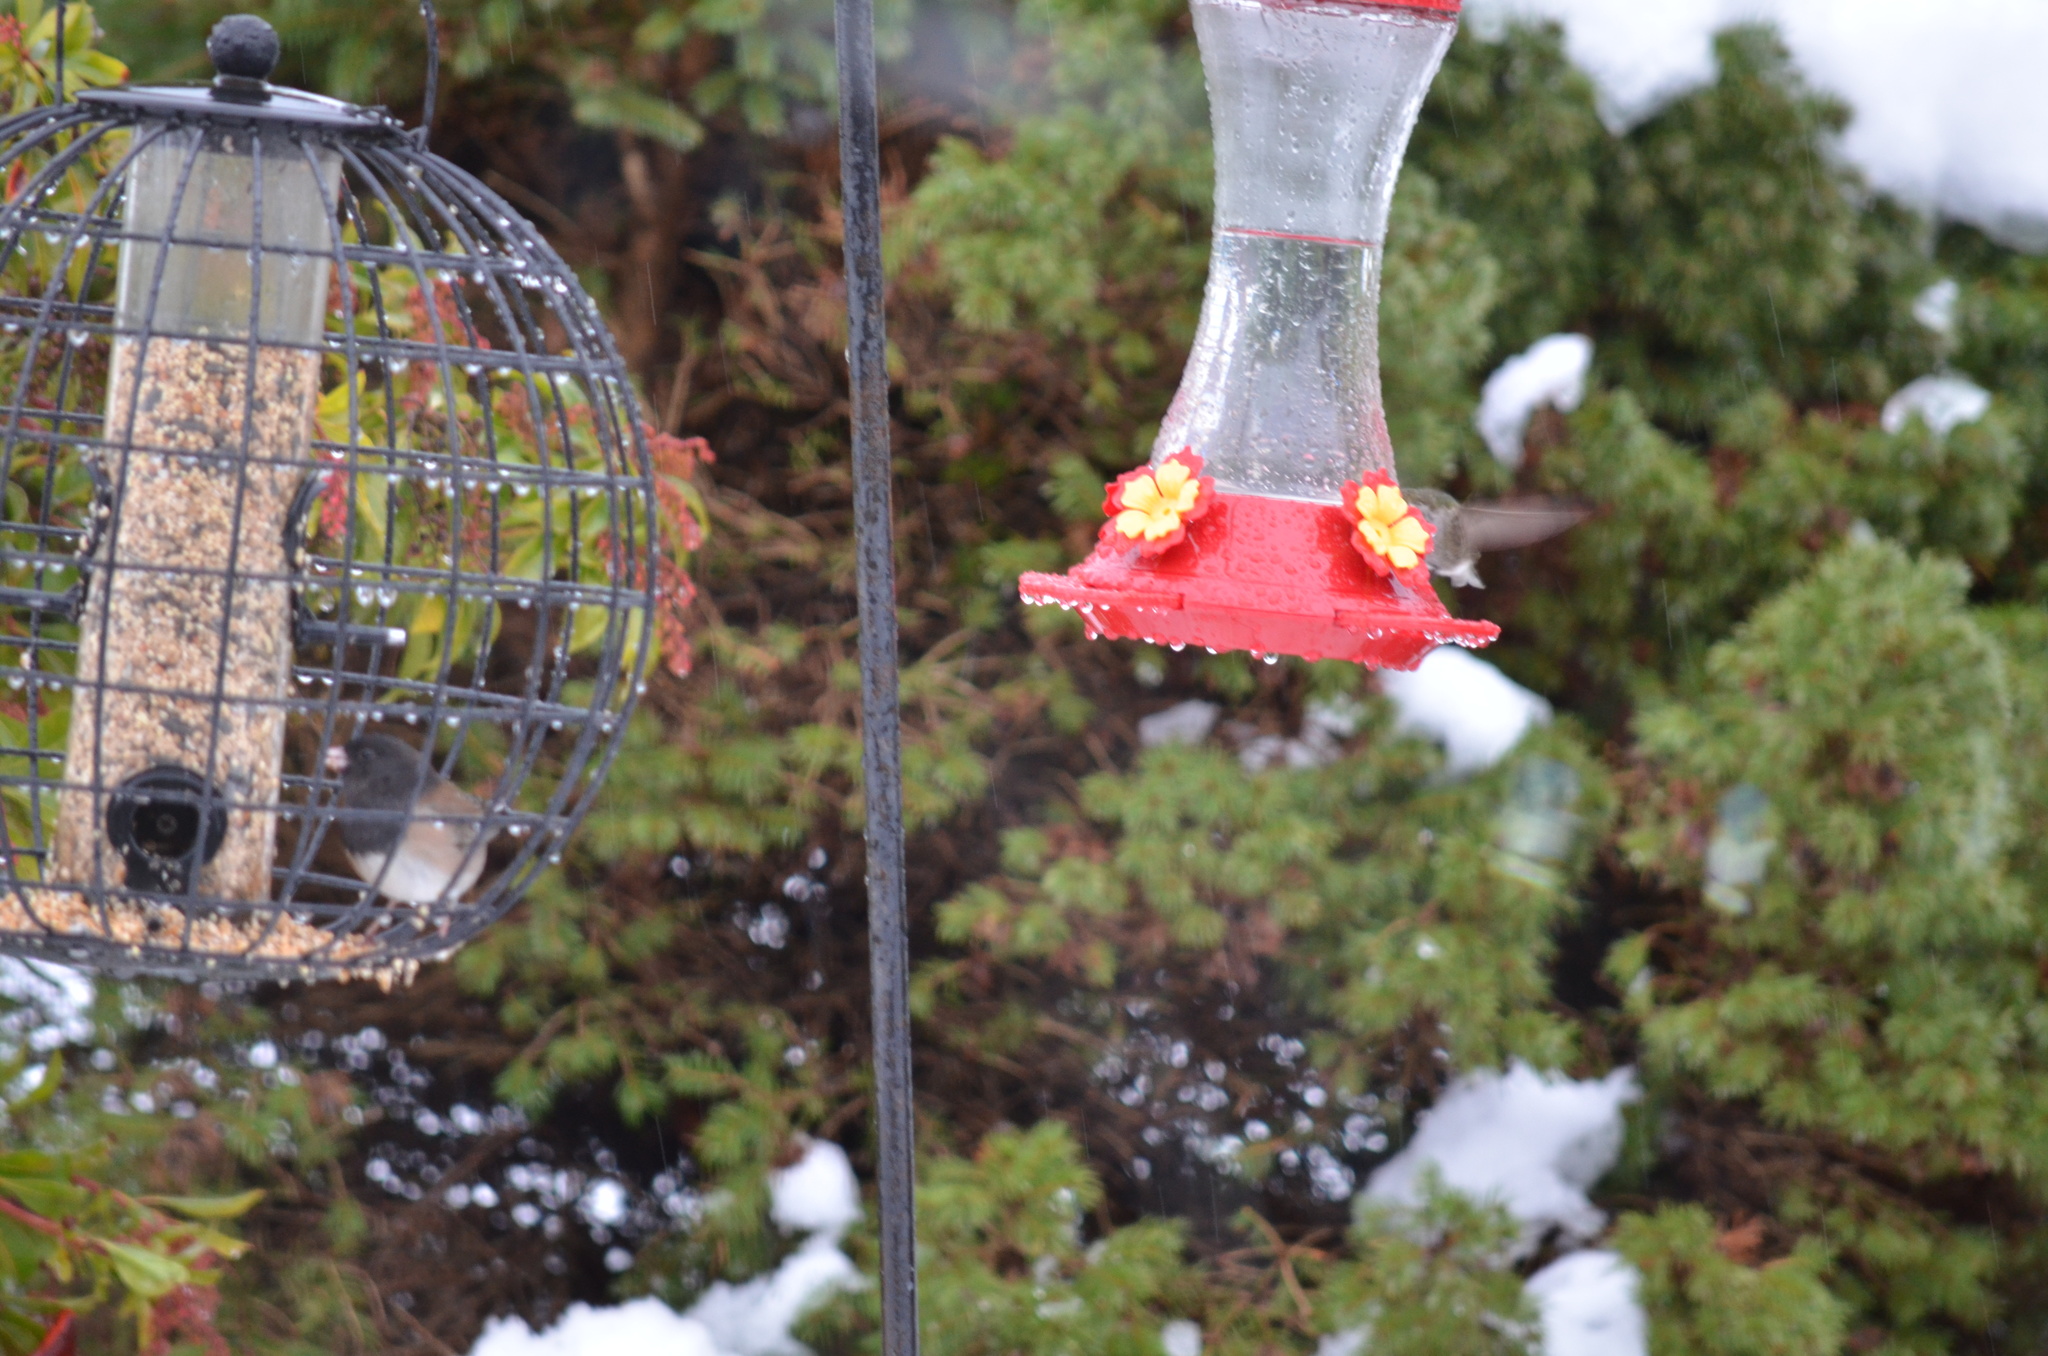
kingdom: Animalia
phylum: Chordata
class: Aves
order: Apodiformes
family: Trochilidae
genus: Calypte
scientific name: Calypte anna
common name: Anna's hummingbird
